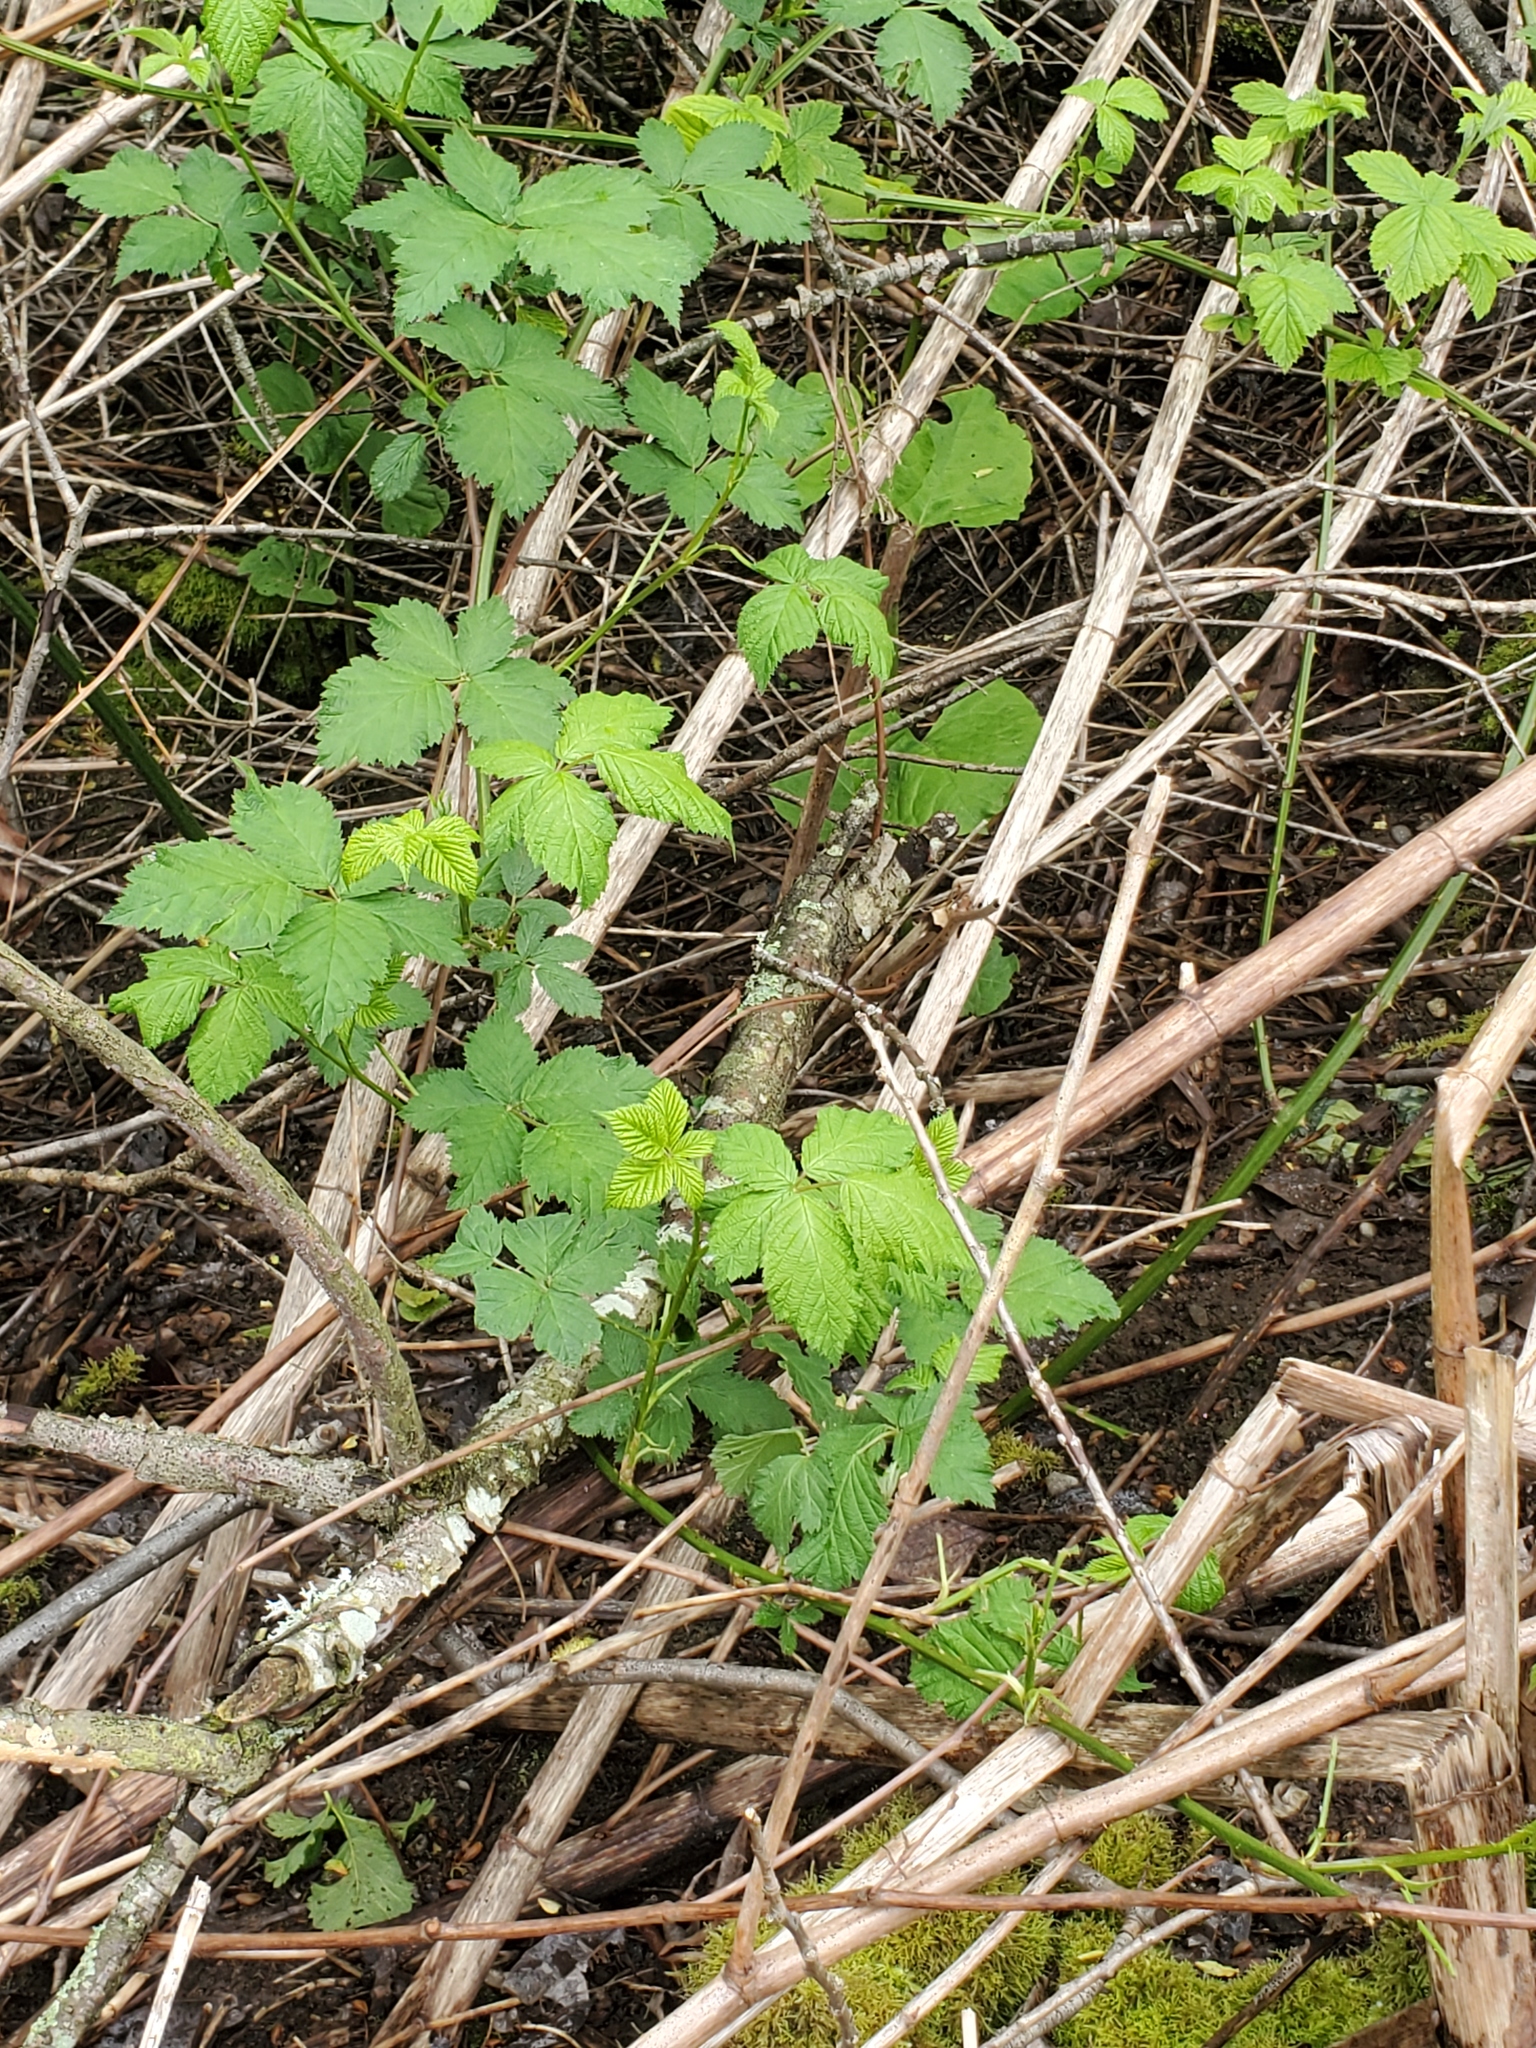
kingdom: Plantae
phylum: Tracheophyta
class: Magnoliopsida
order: Rosales
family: Rosaceae
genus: Rubus
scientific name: Rubus bifrons
